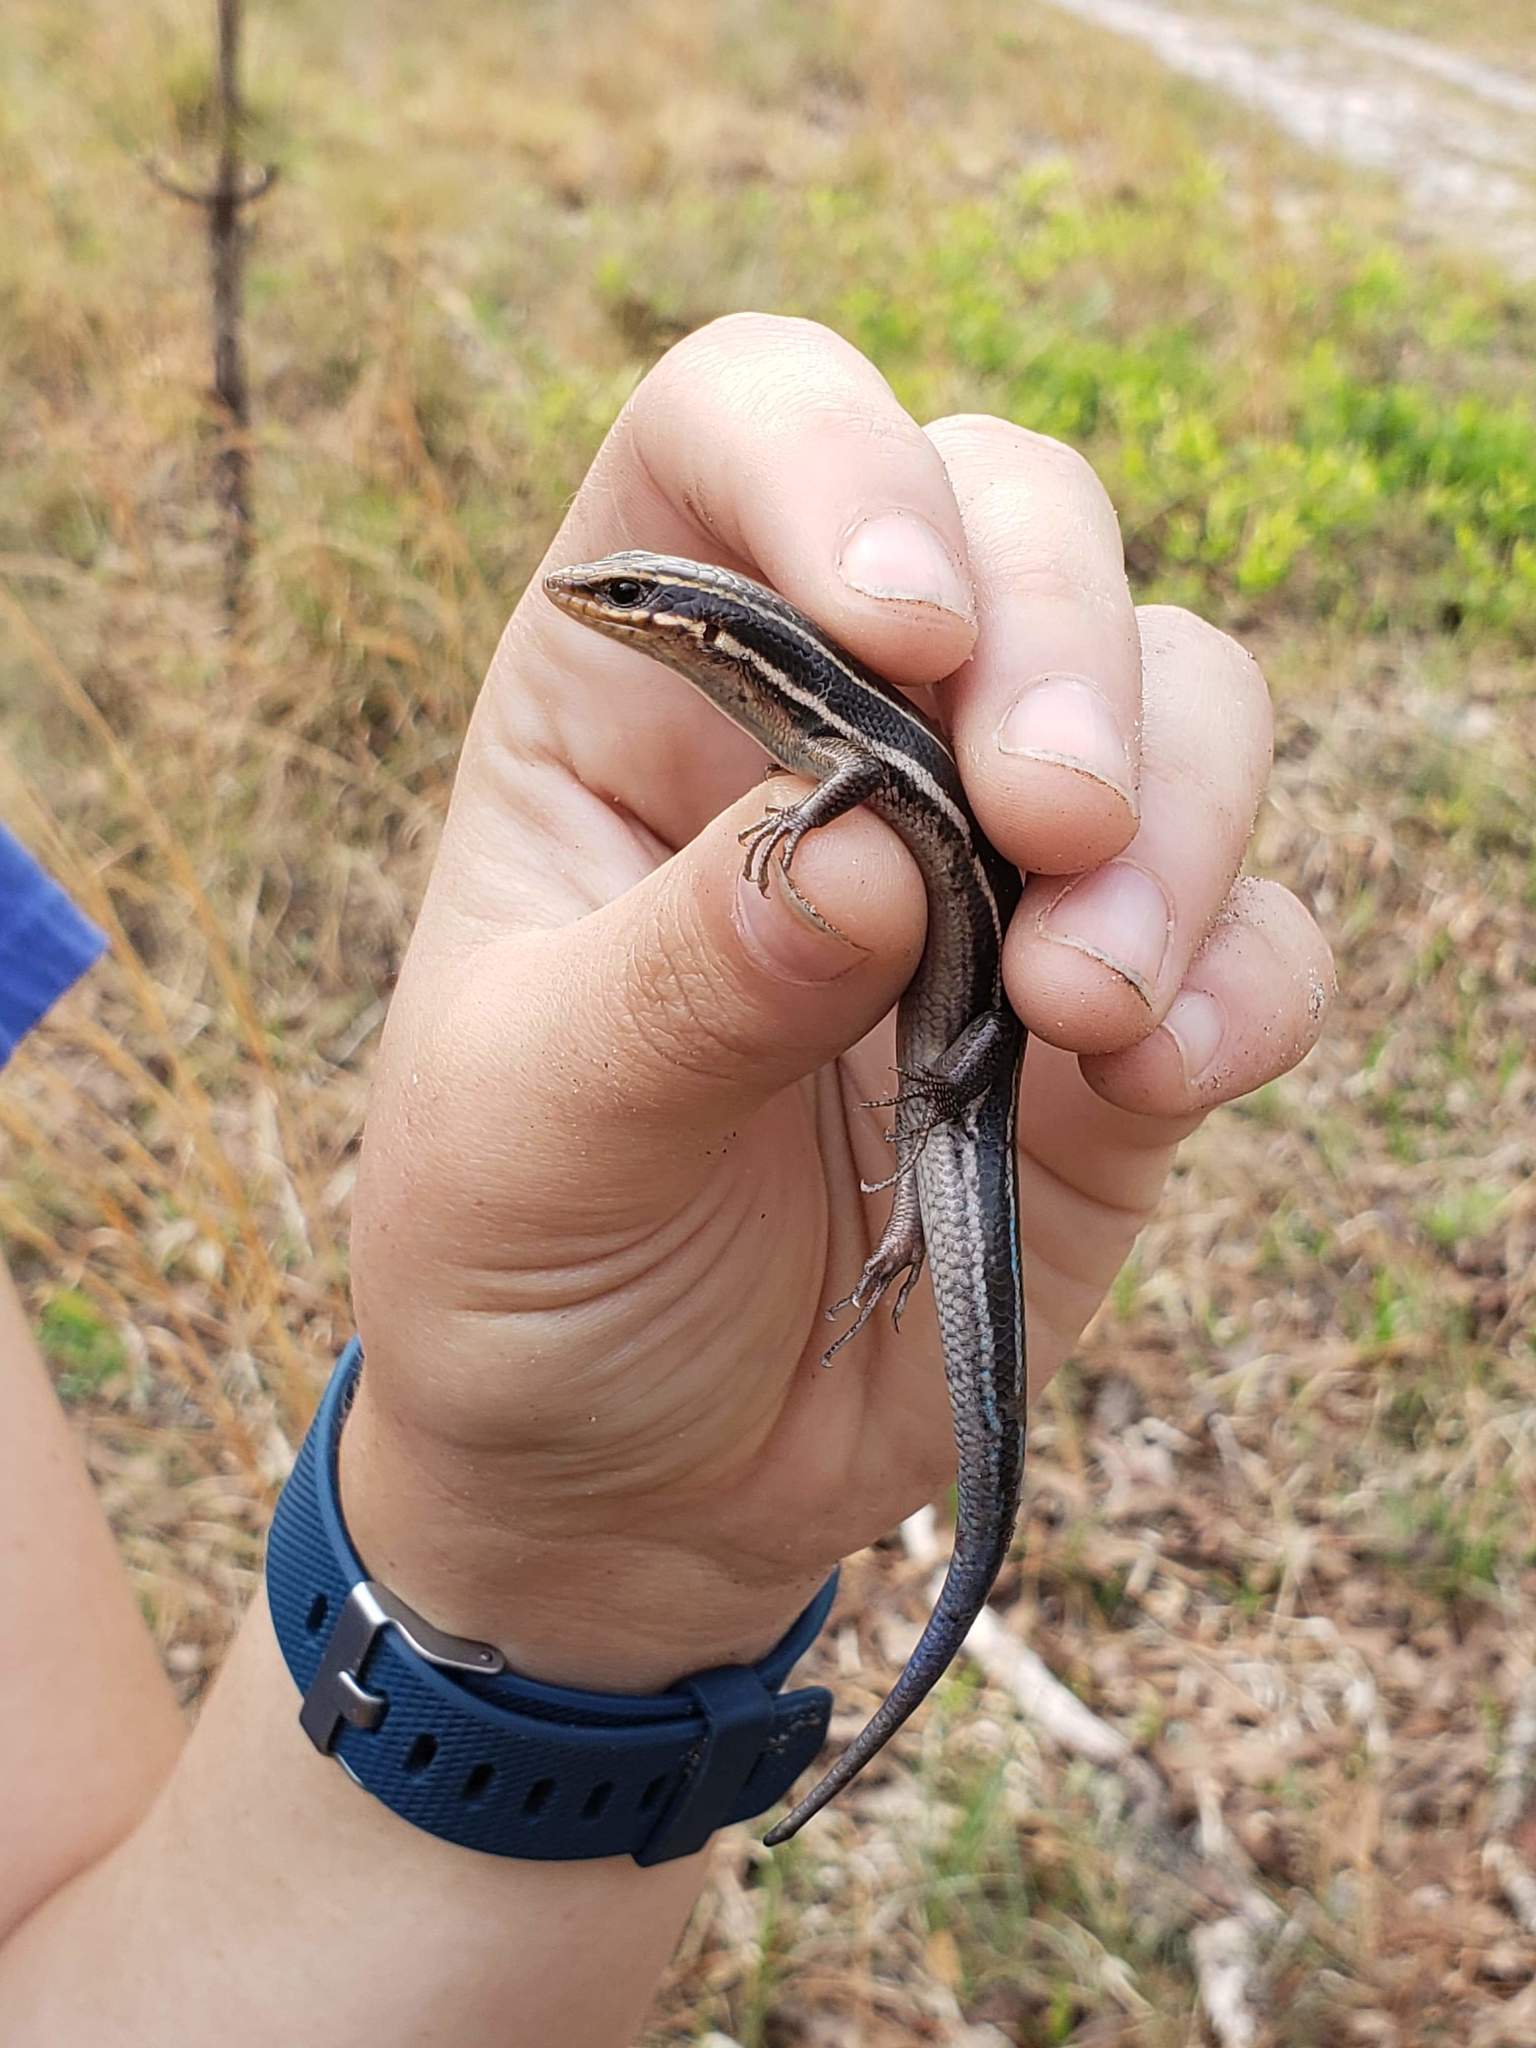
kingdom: Animalia
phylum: Chordata
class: Squamata
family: Scincidae
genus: Plestiodon
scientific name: Plestiodon inexpectatus
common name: Southeastern five-lined skink
